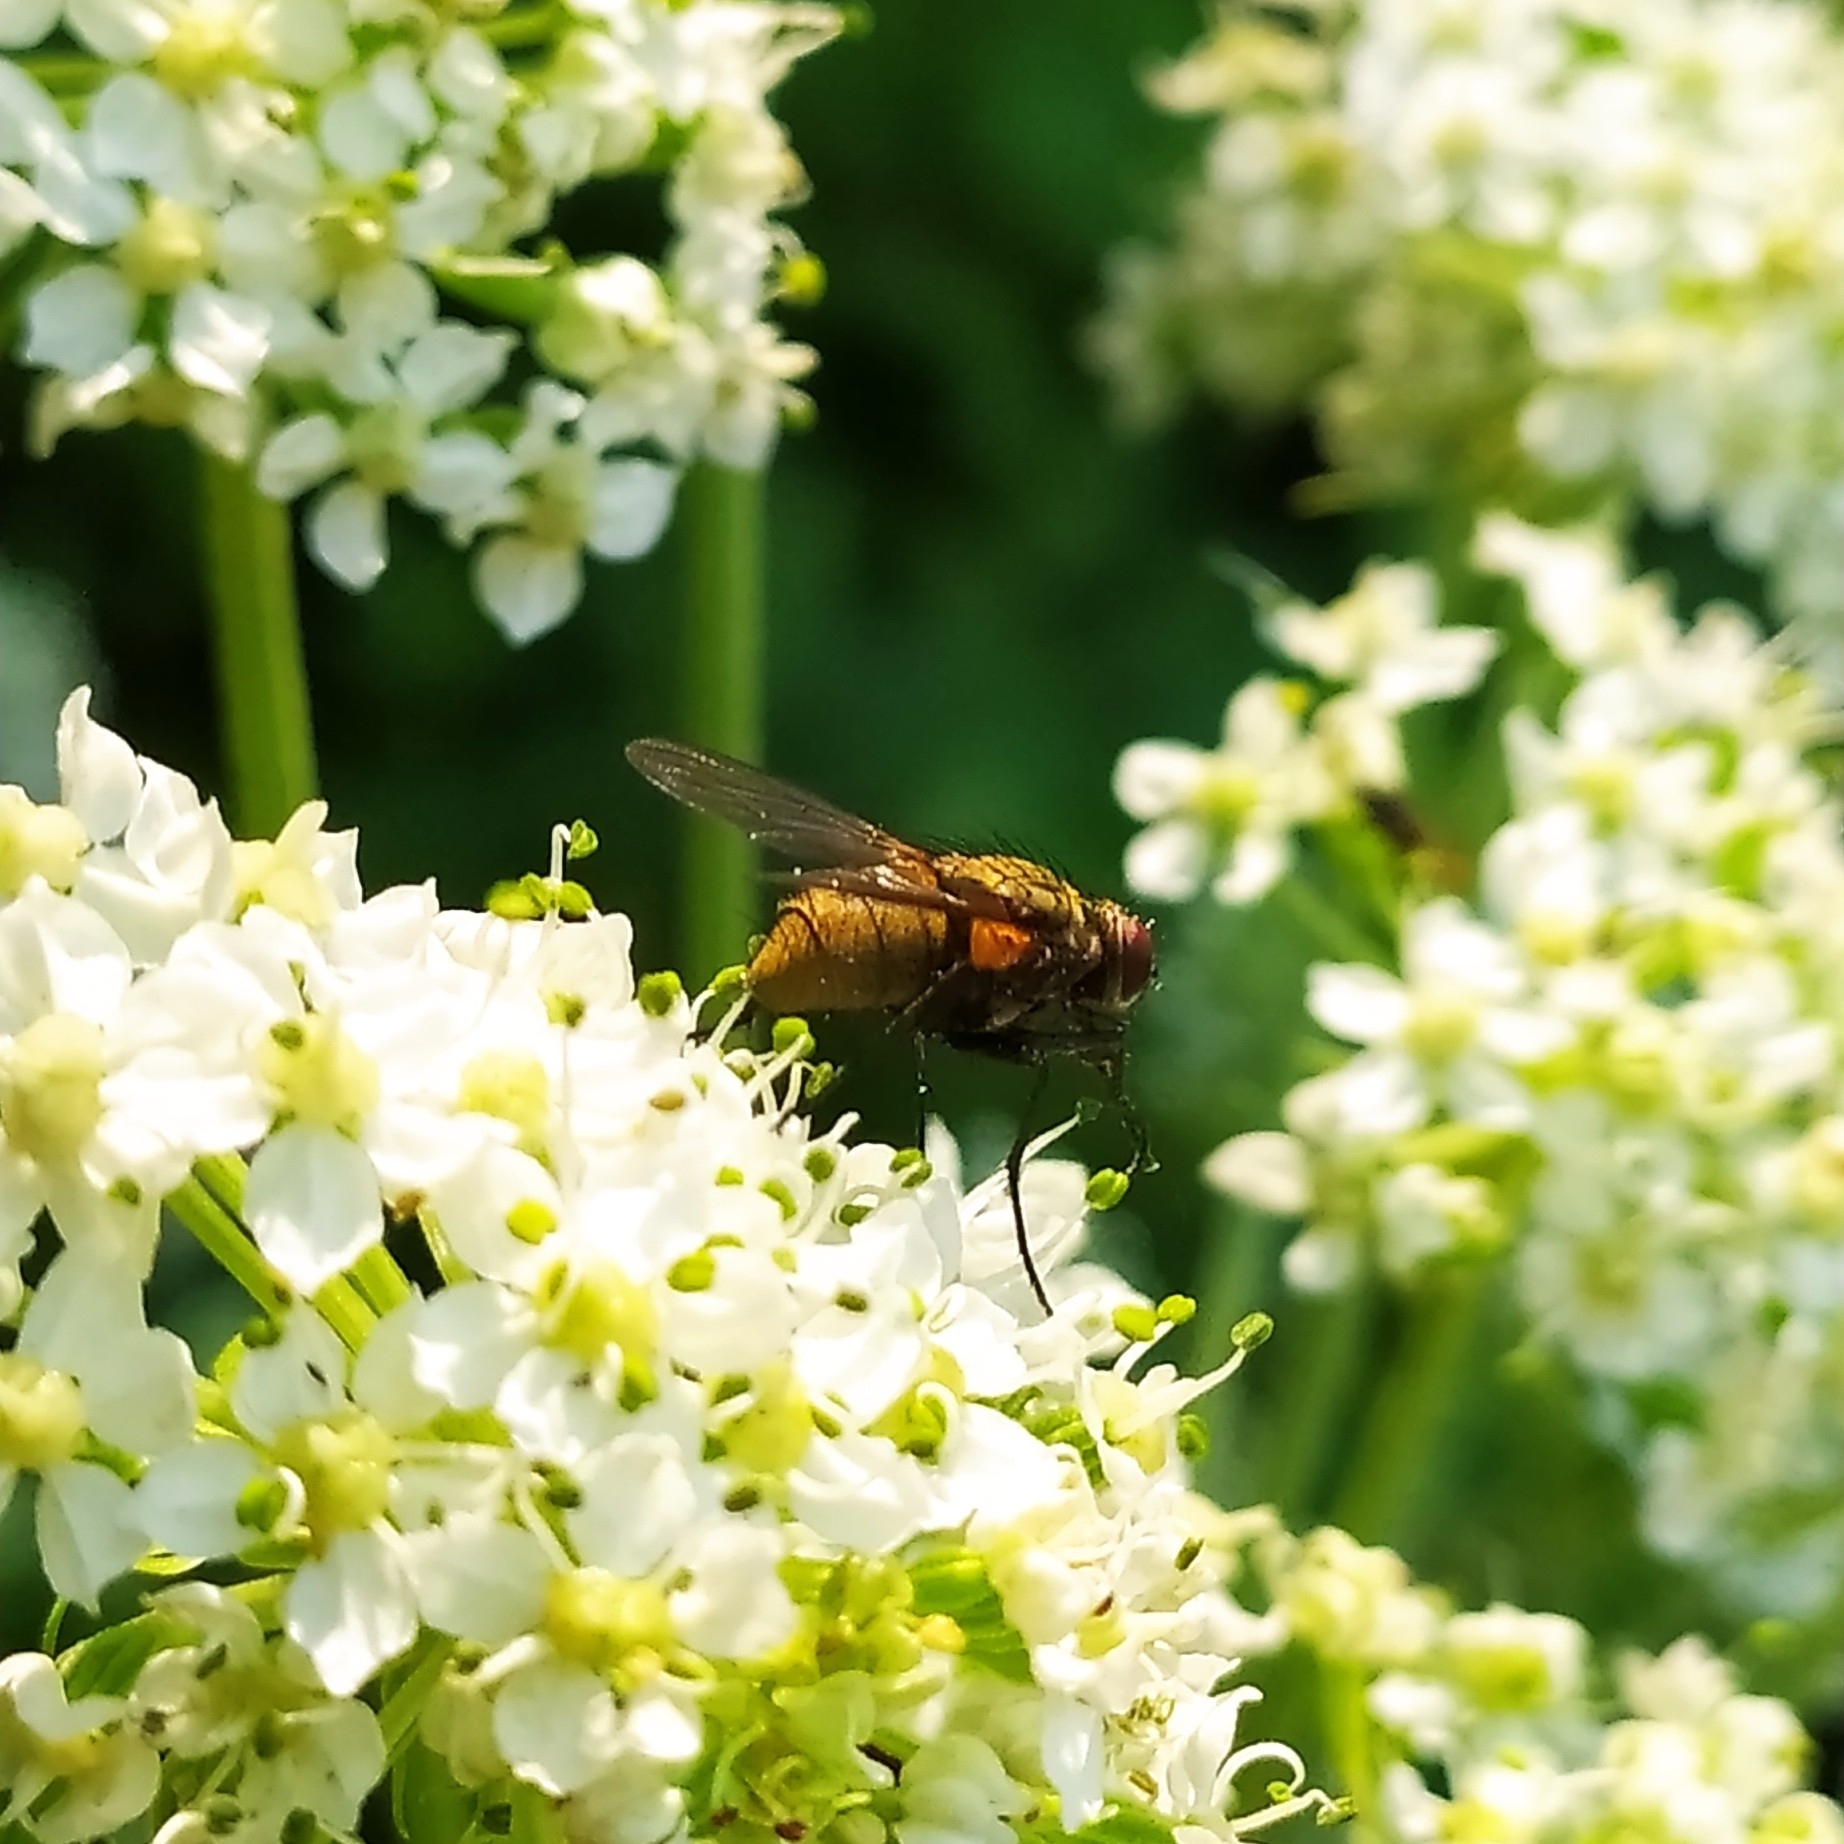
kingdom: Animalia
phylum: Arthropoda
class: Insecta
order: Diptera
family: Muscidae
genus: Thricops
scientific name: Thricops nigrifrons
